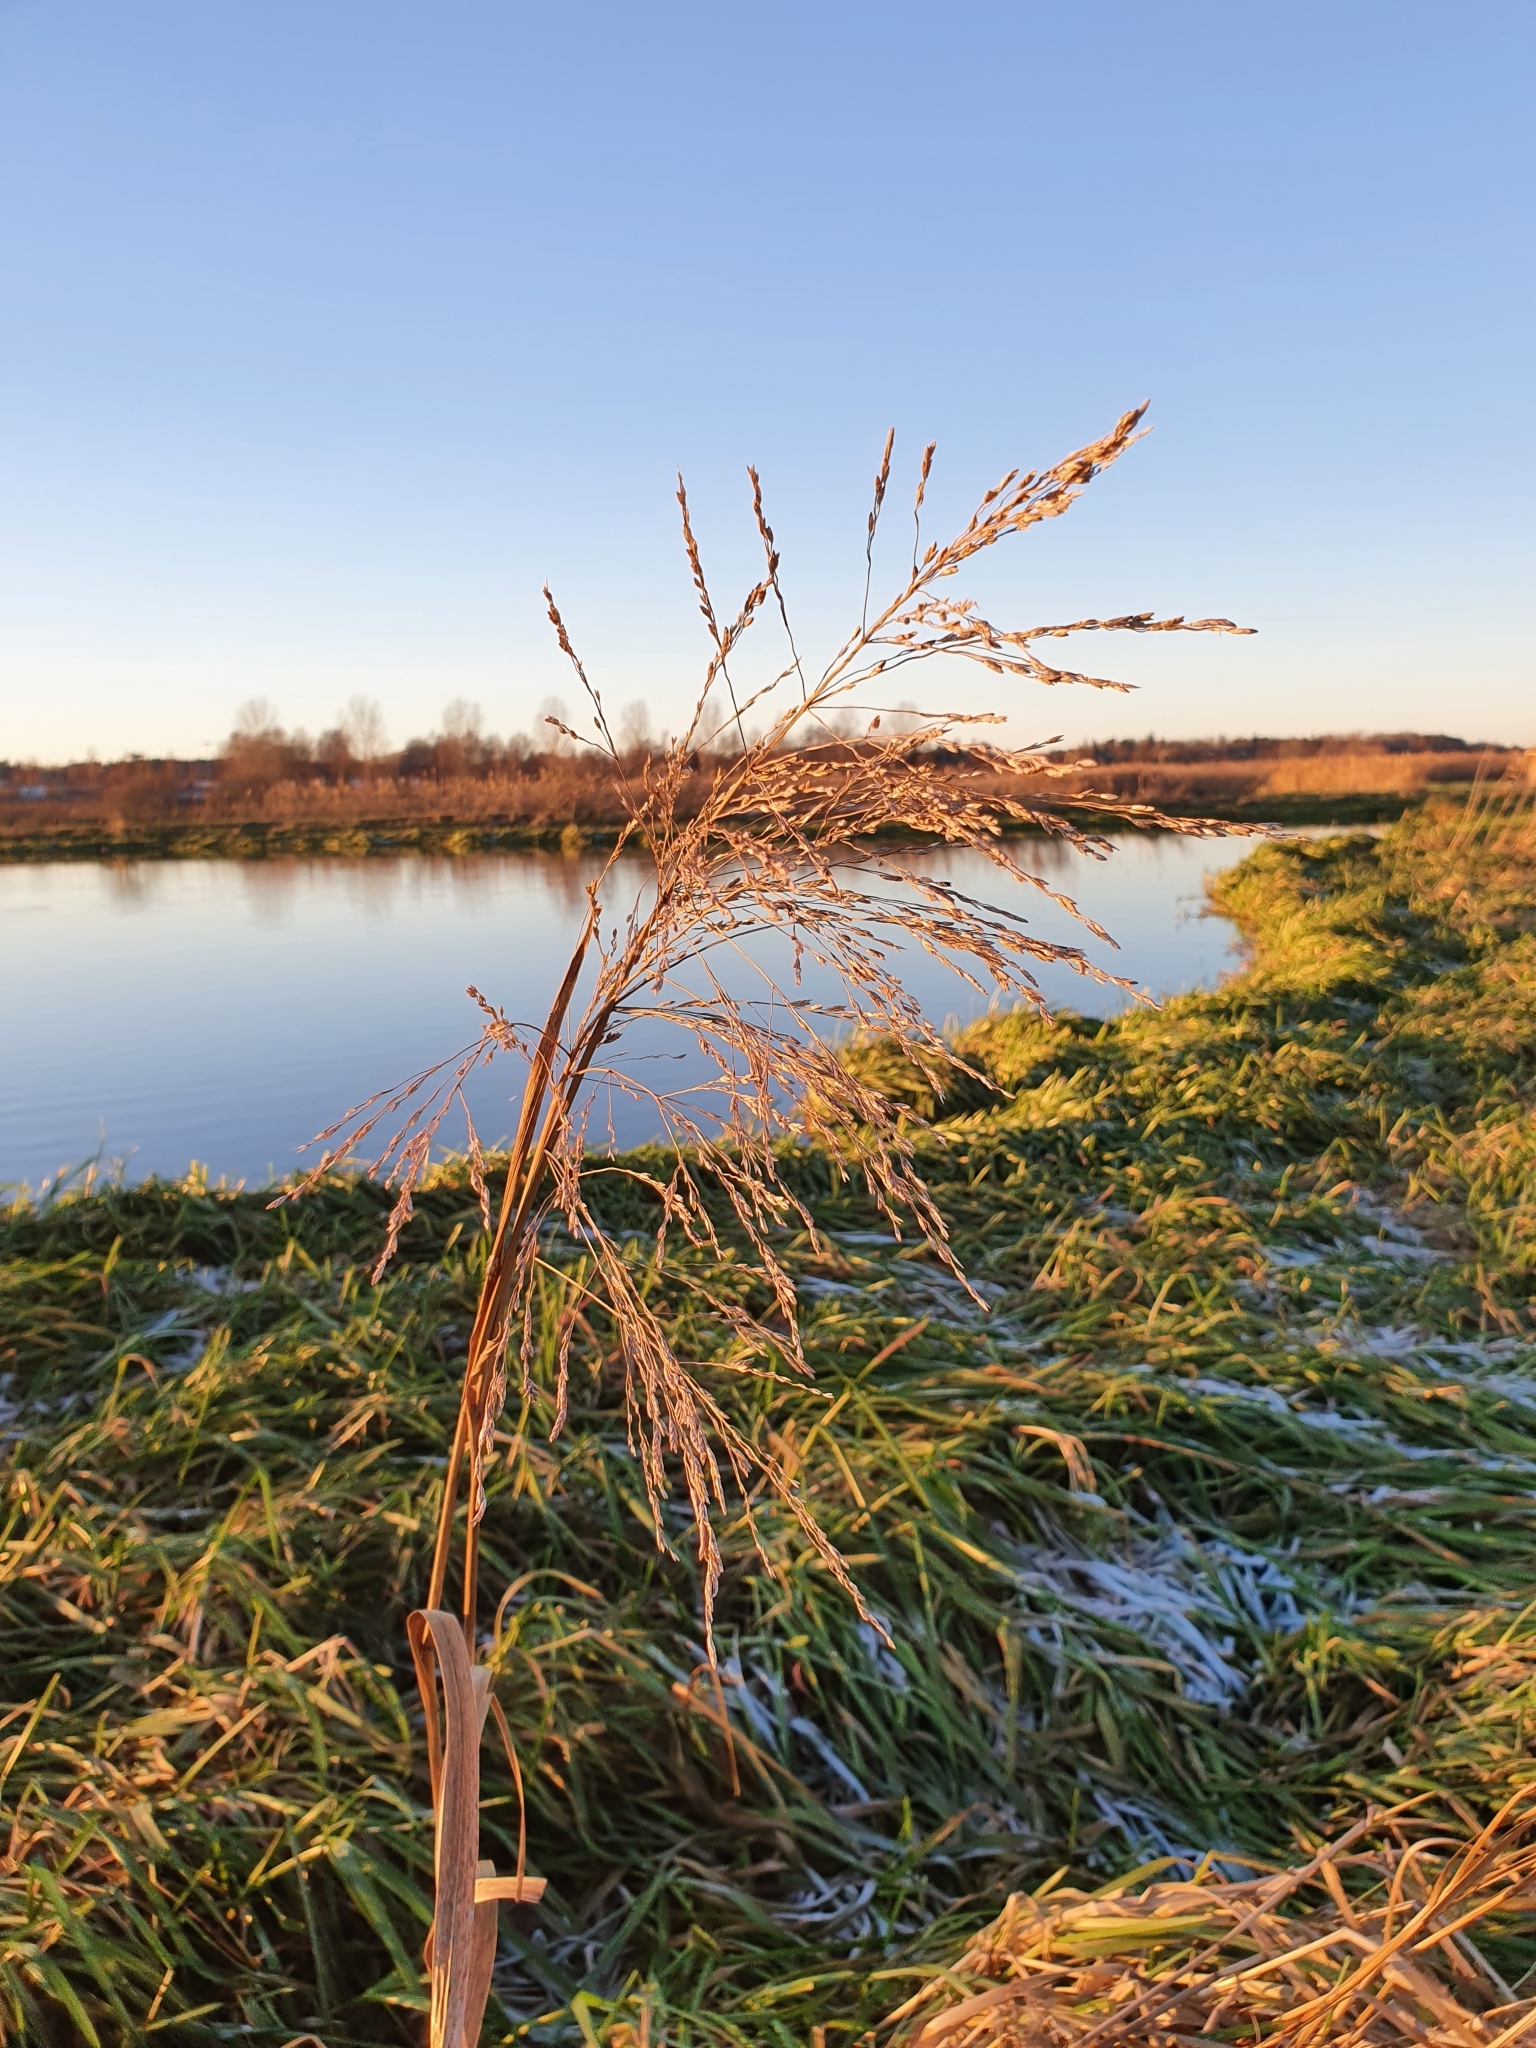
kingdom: Plantae
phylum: Tracheophyta
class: Liliopsida
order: Poales
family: Poaceae
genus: Glyceria
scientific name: Glyceria maxima
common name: Reed mannagrass
